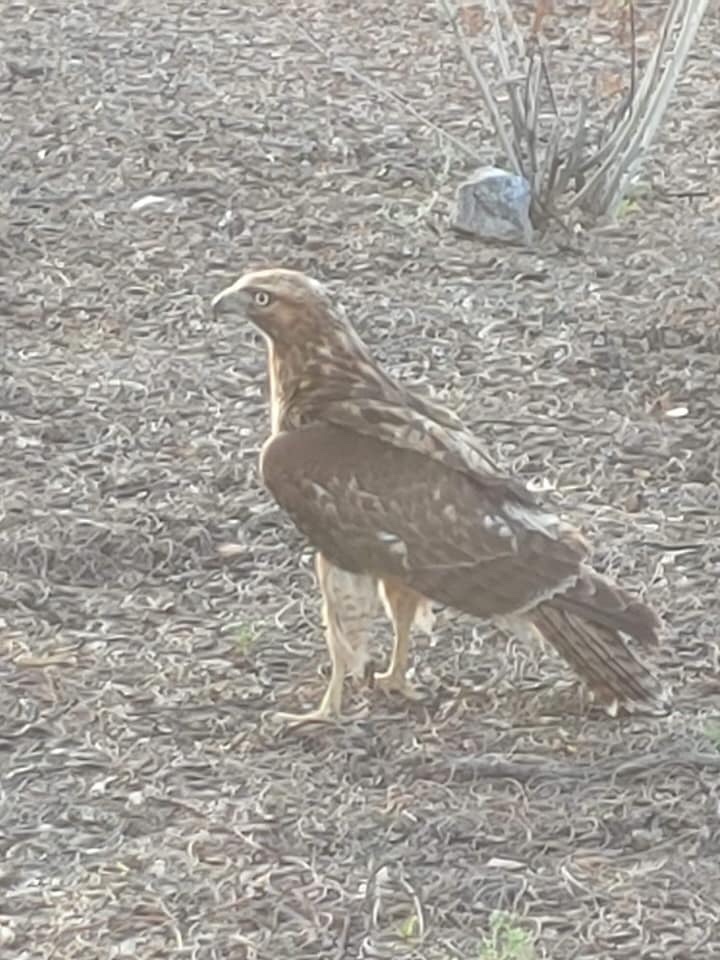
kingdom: Animalia
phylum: Chordata
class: Aves
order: Accipitriformes
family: Accipitridae
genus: Circus
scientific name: Circus cyaneus
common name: Hen harrier
